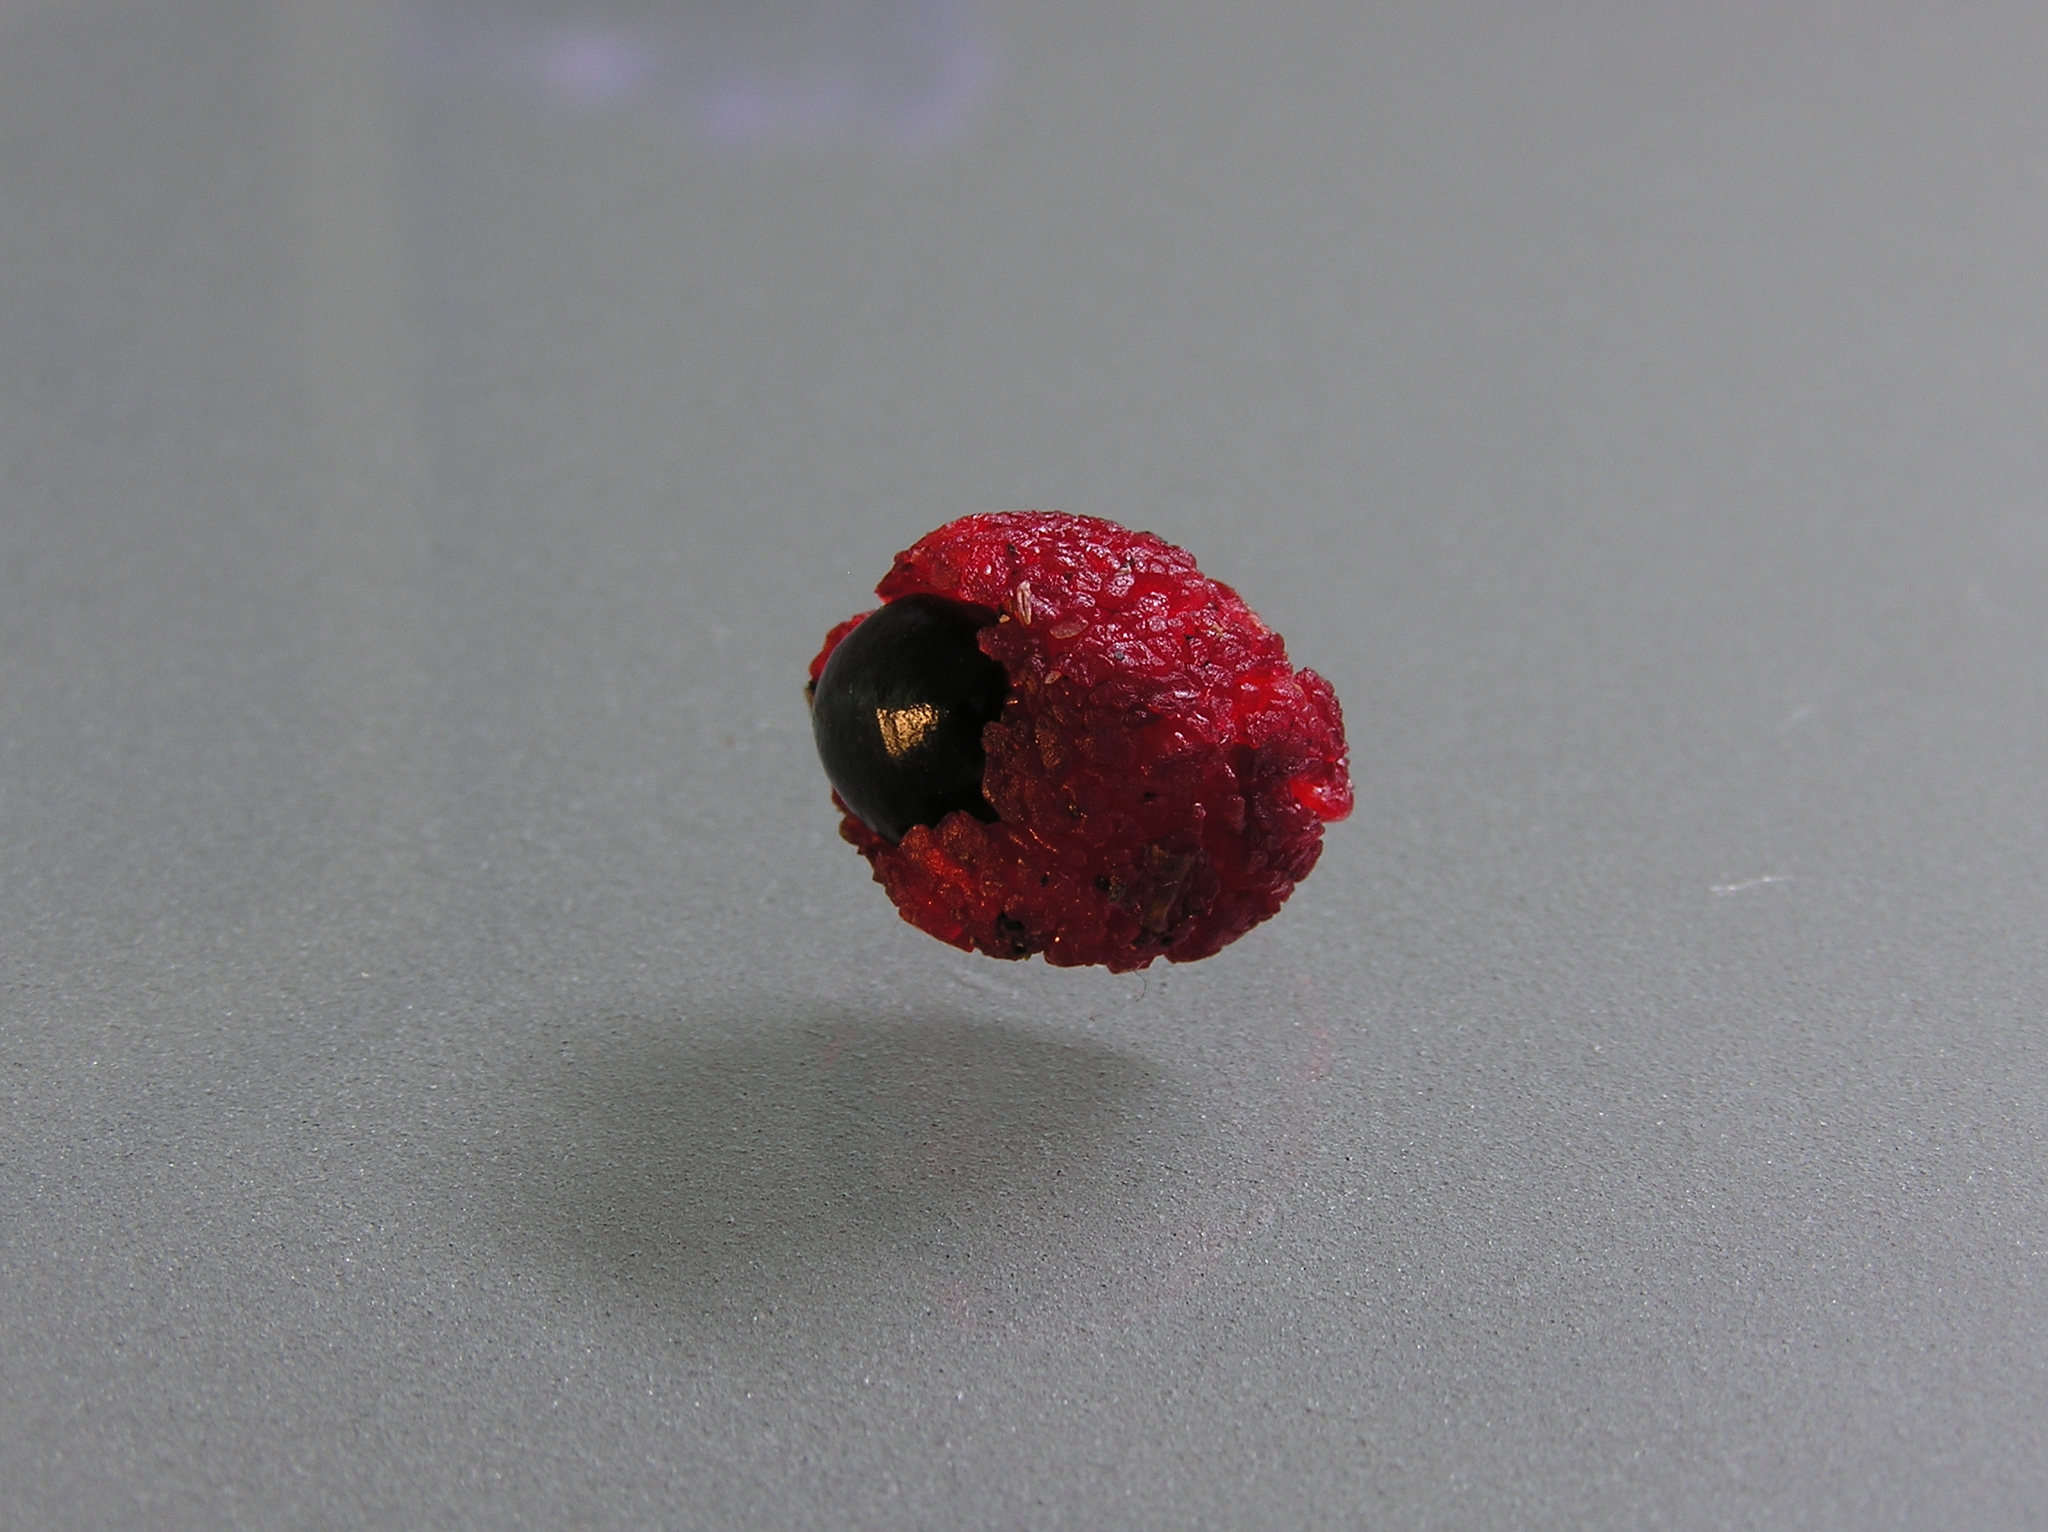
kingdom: Plantae
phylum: Tracheophyta
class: Magnoliopsida
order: Sapindales
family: Sapindaceae
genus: Alectryon
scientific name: Alectryon excelsus
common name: Three kings titoki
